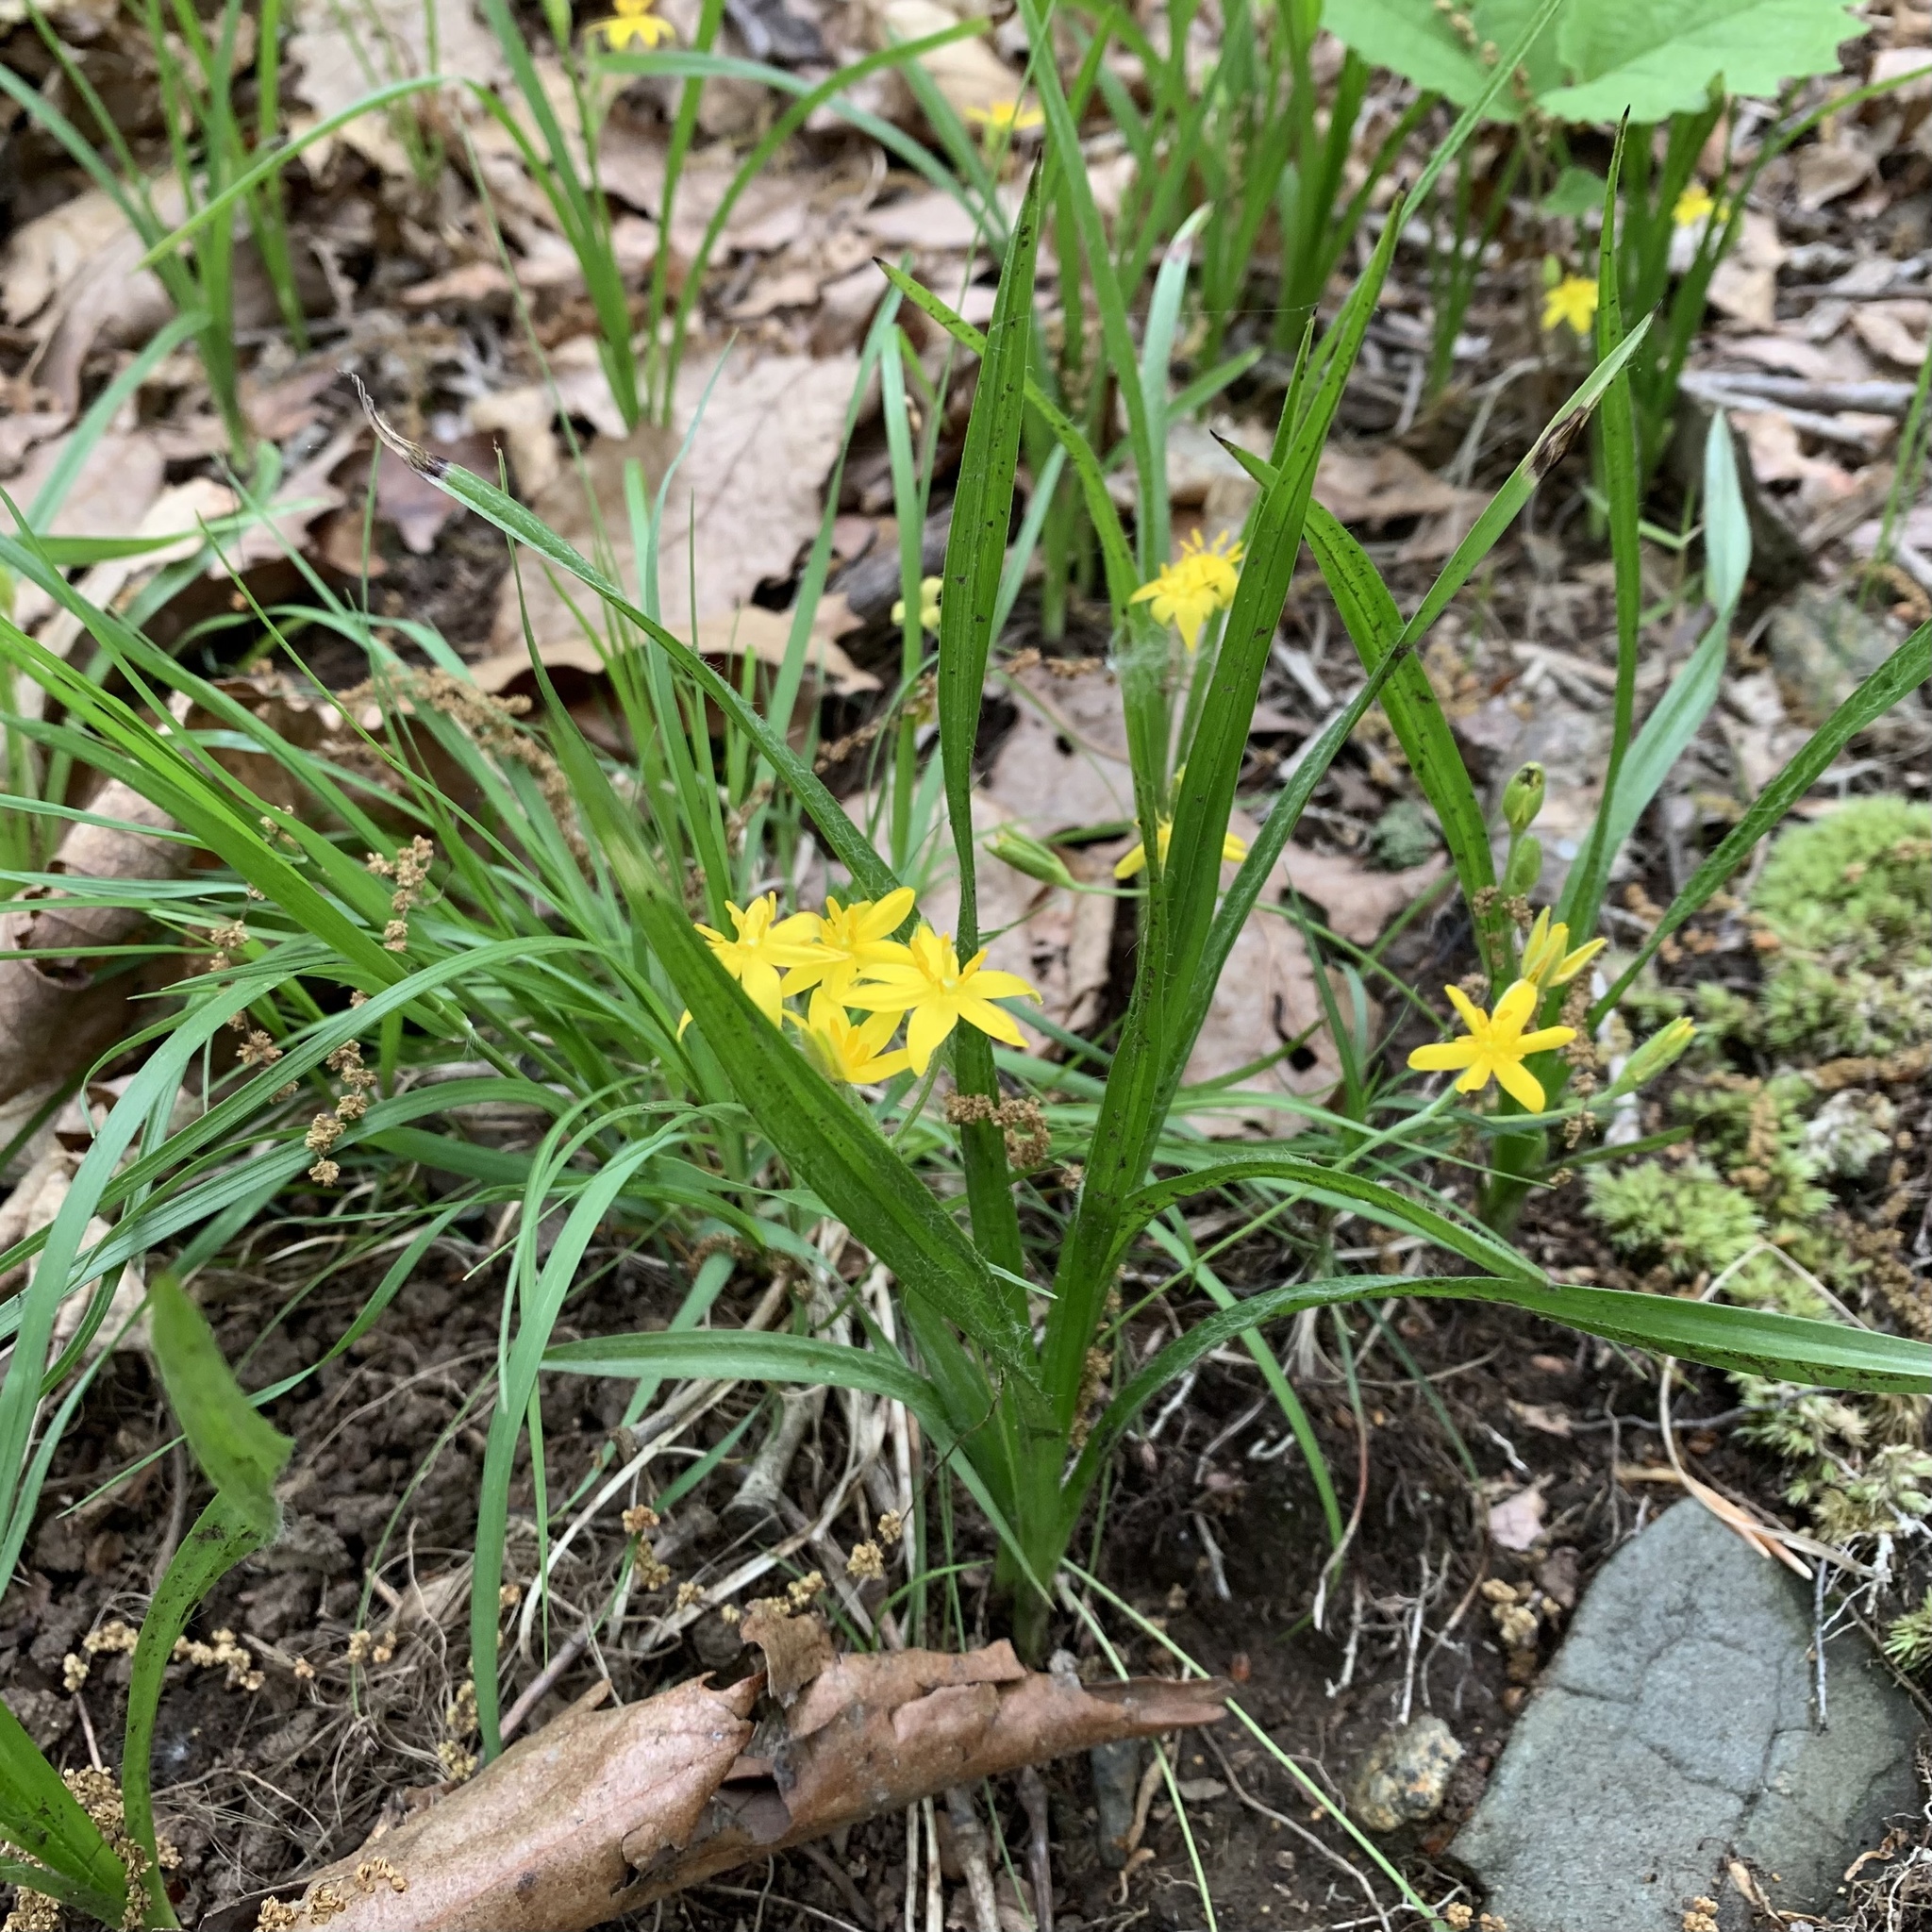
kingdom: Plantae
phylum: Tracheophyta
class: Liliopsida
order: Asparagales
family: Hypoxidaceae
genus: Hypoxis
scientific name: Hypoxis hirsuta
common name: Common goldstar
